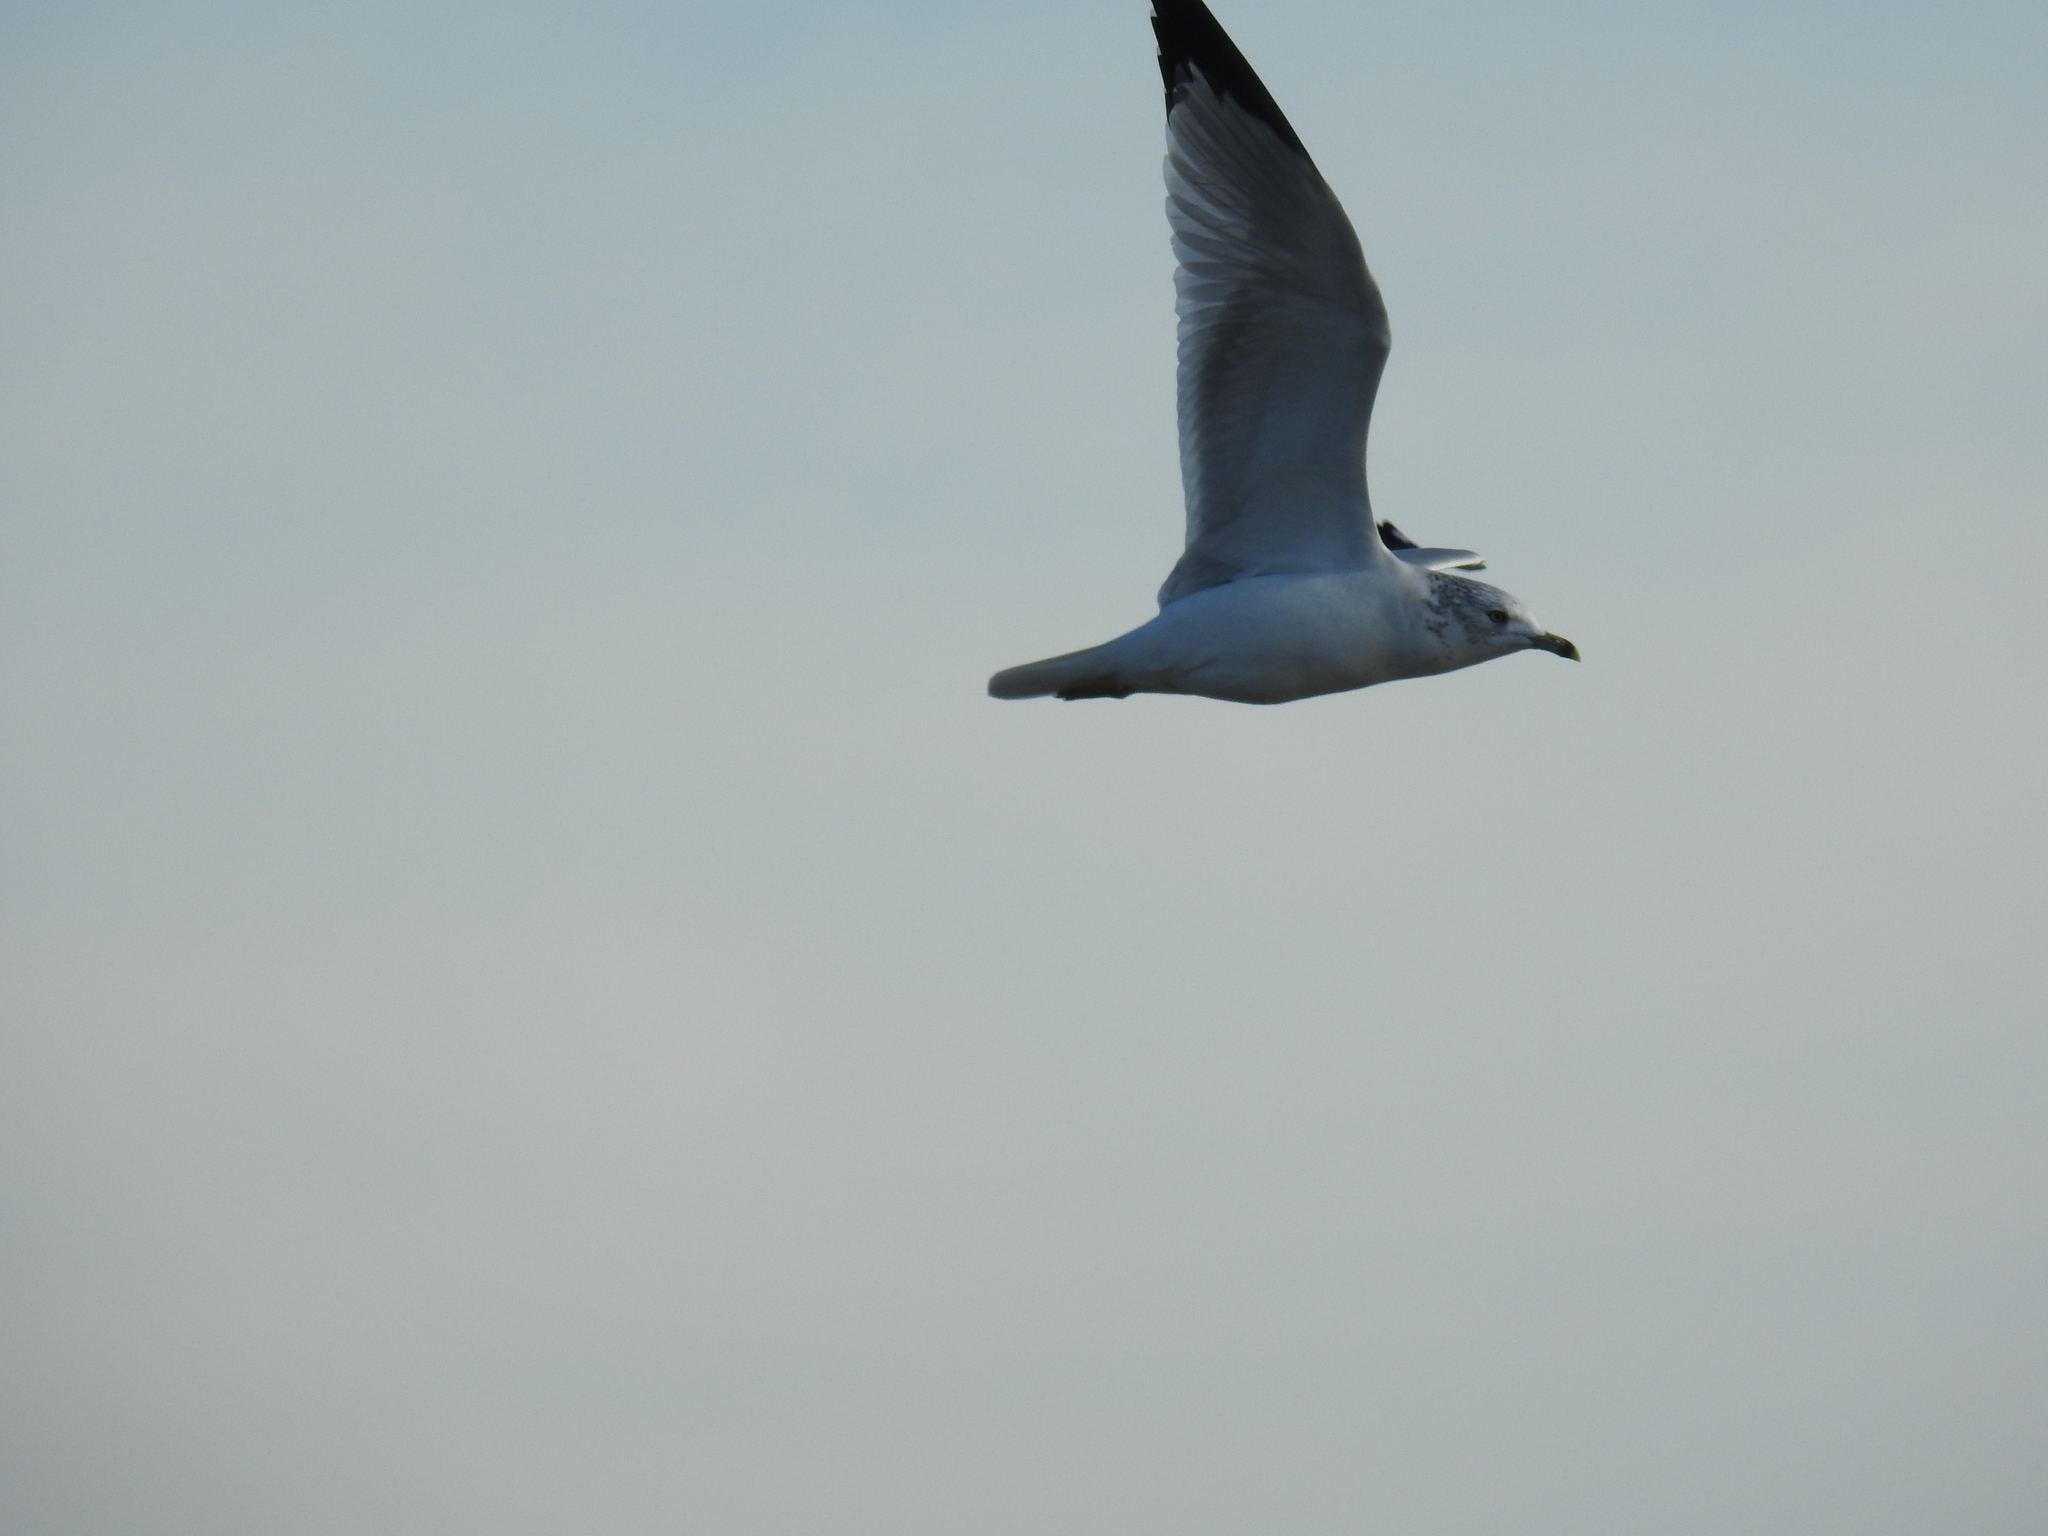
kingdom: Animalia
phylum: Chordata
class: Aves
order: Charadriiformes
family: Laridae
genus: Larus
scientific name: Larus delawarensis
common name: Ring-billed gull
